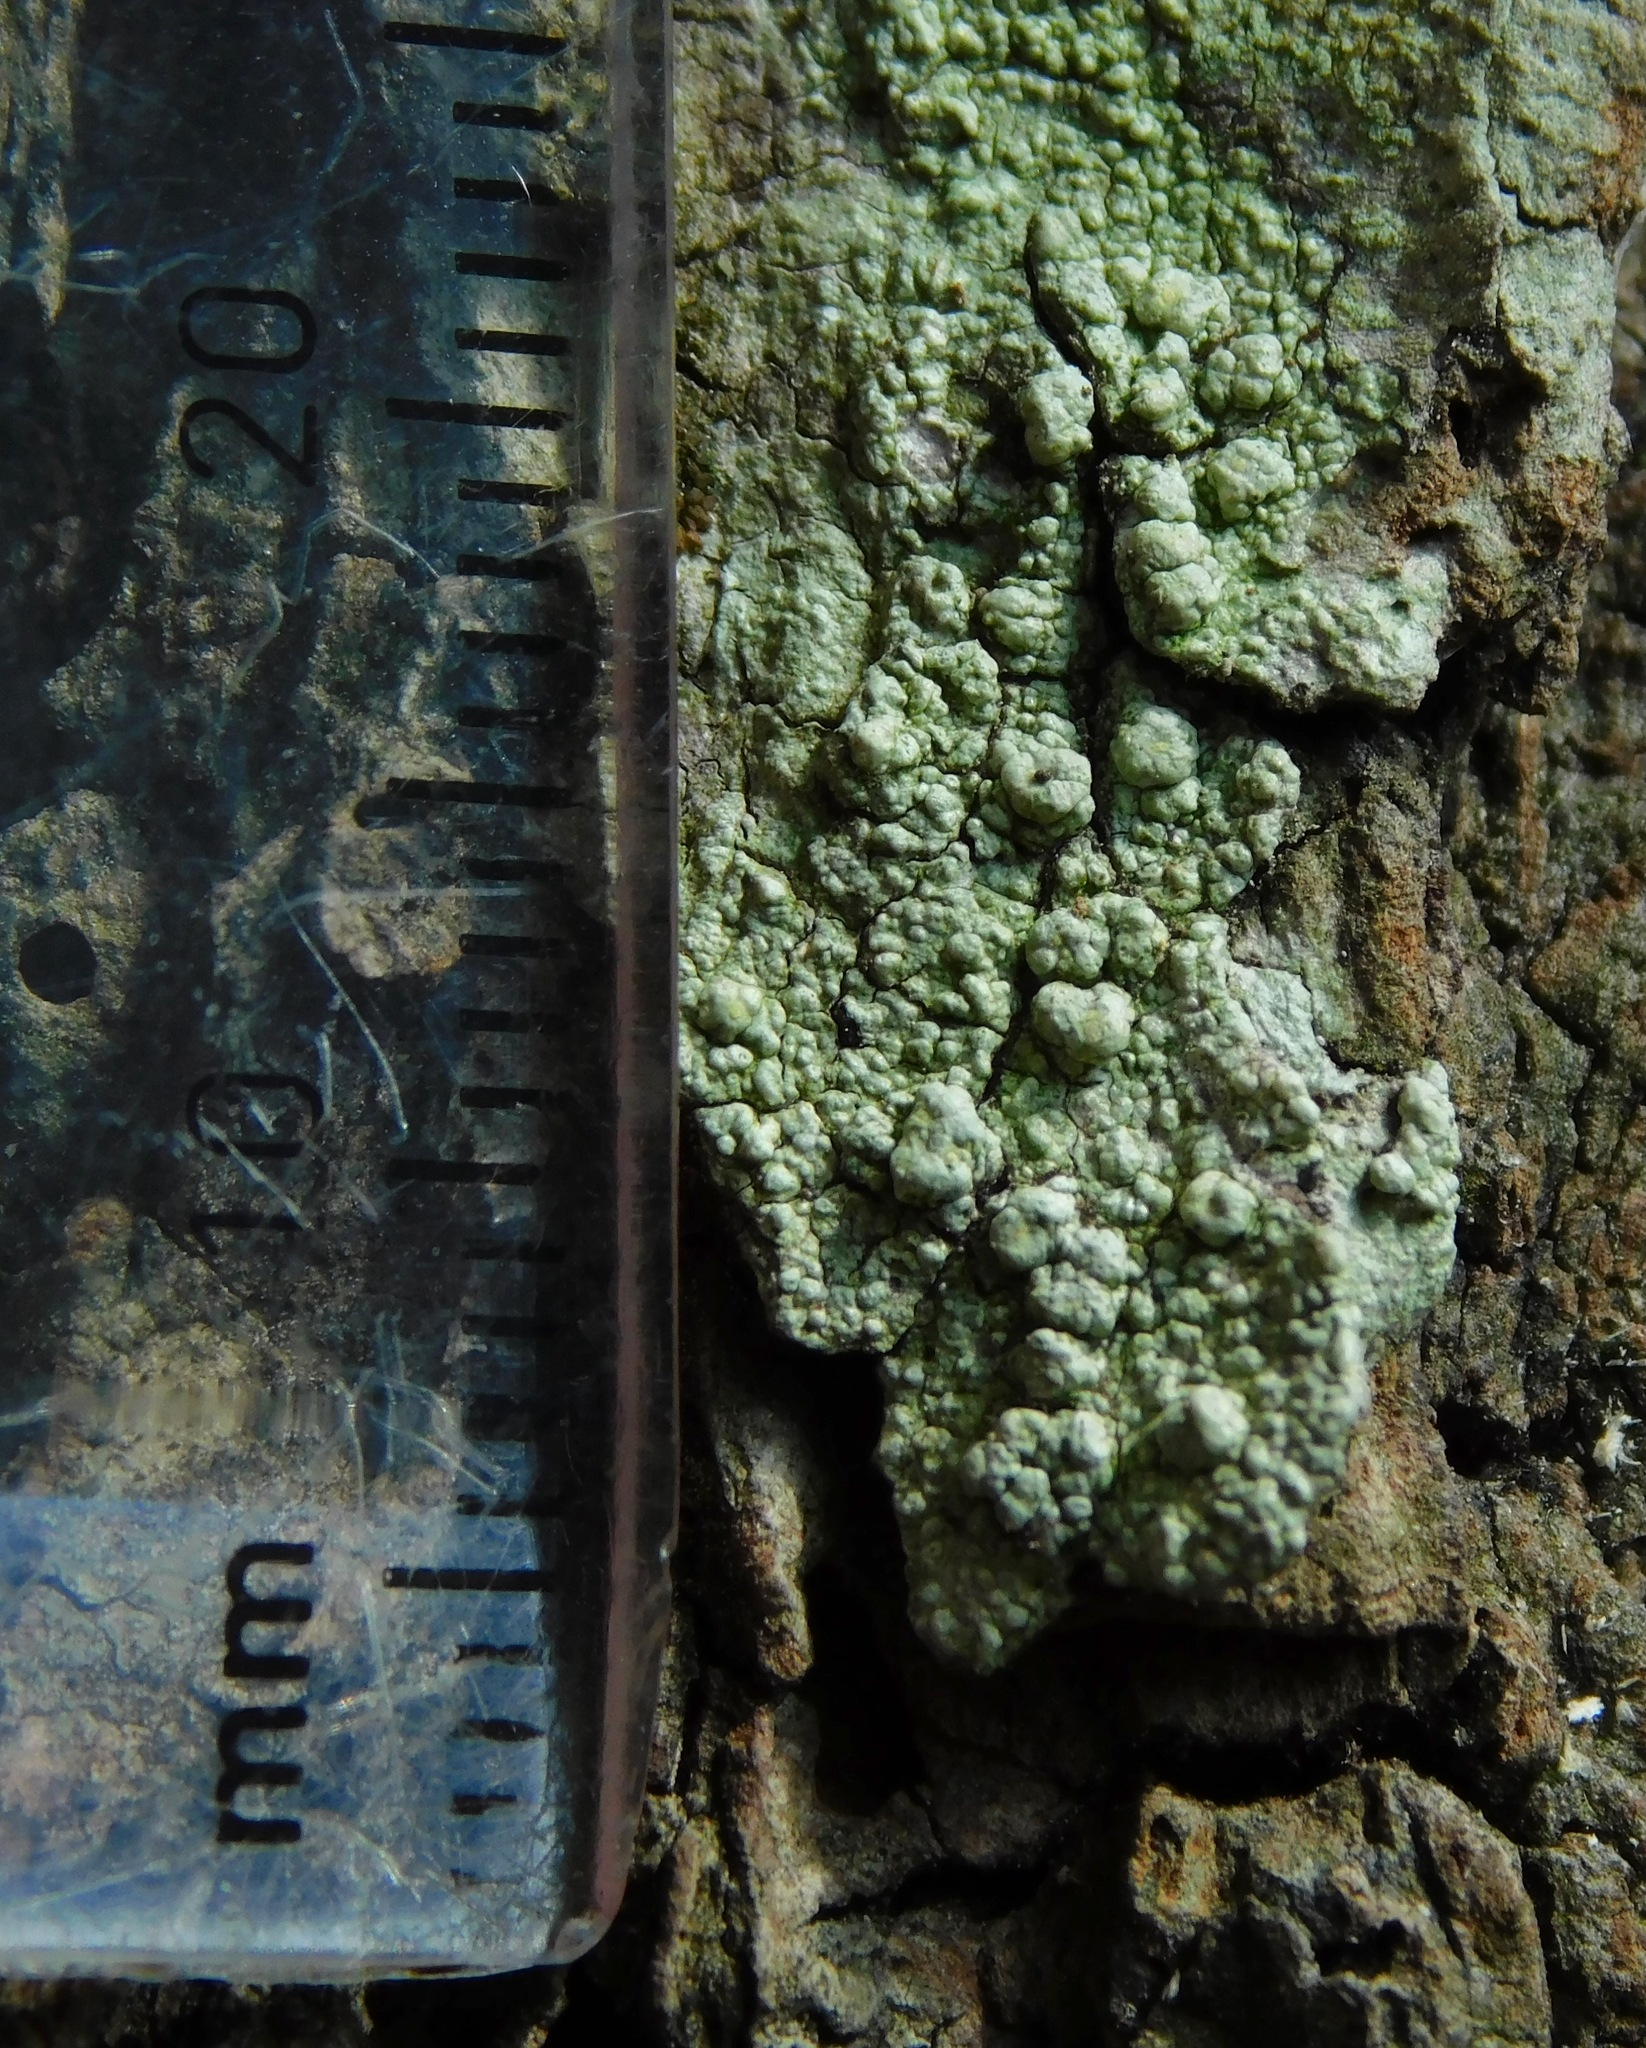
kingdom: Fungi
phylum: Ascomycota
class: Lecanoromycetes
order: Pertusariales
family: Pertusariaceae
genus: Pertusaria
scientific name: Pertusaria paratuberculifera
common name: Spotted wart lichen
